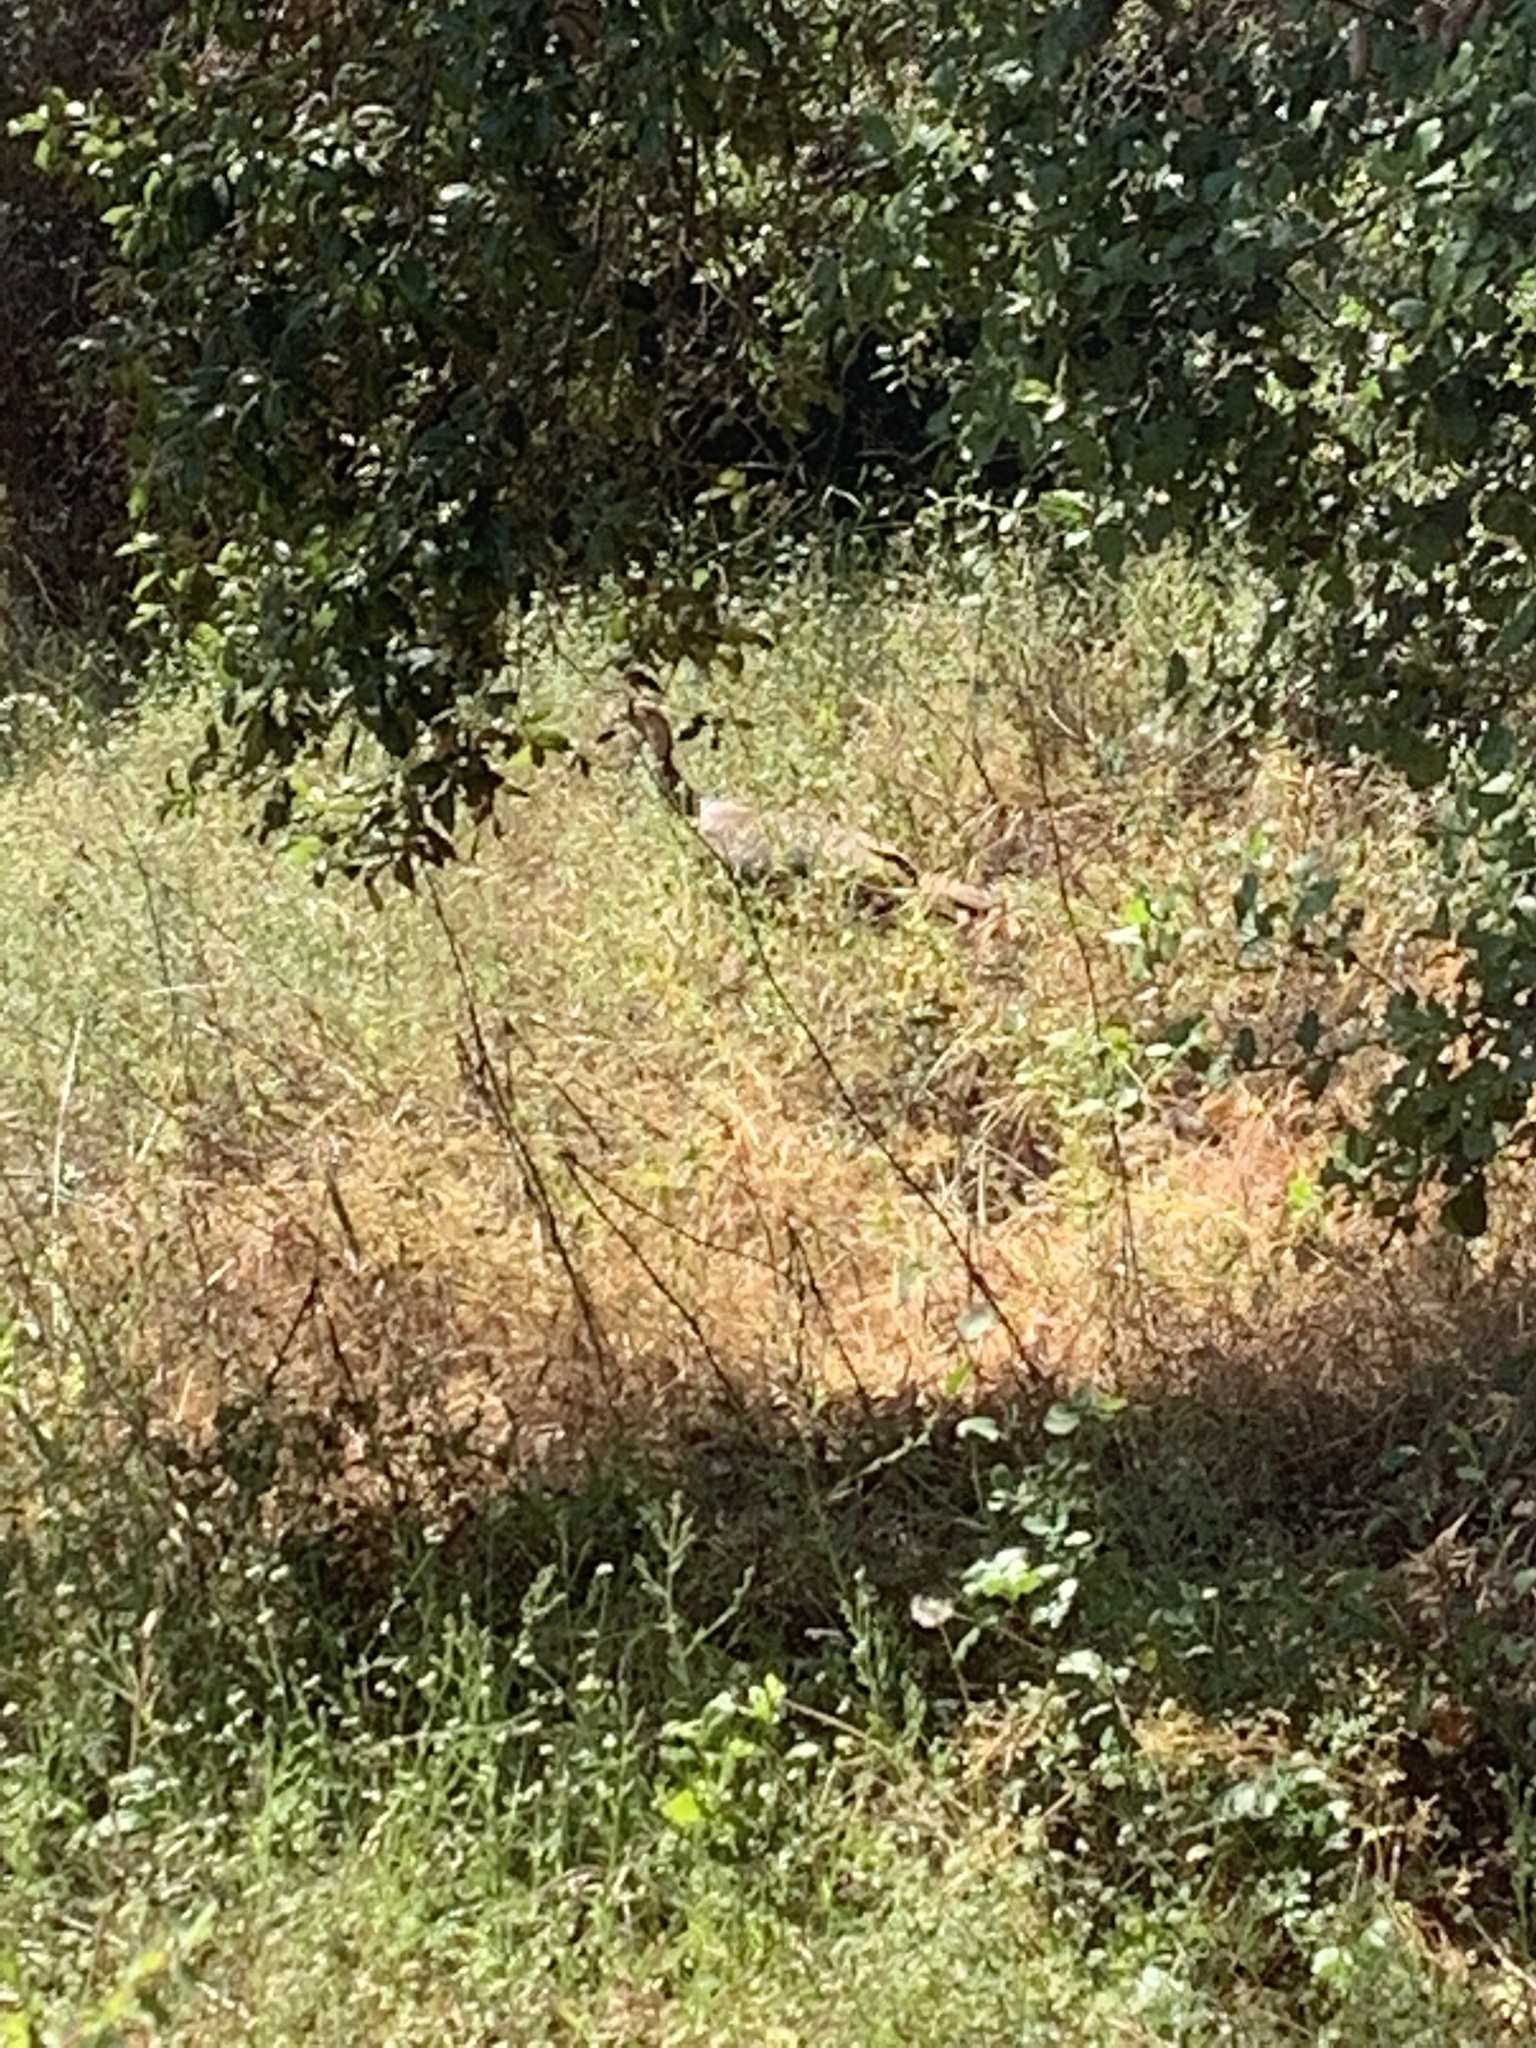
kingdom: Animalia
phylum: Chordata
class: Aves
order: Galliformes
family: Phasianidae
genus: Meleagris
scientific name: Meleagris gallopavo
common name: Wild turkey
